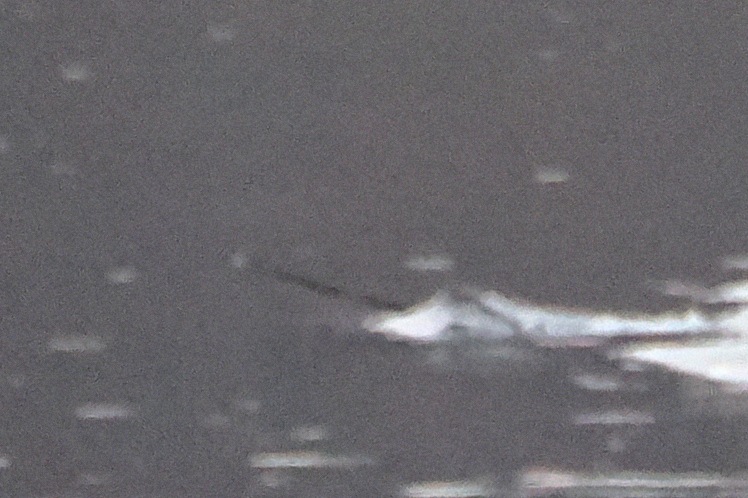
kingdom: Animalia
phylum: Chordata
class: Mammalia
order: Cetacea
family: Monodontidae
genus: Monodon
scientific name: Monodon monoceros
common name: Narwhal
